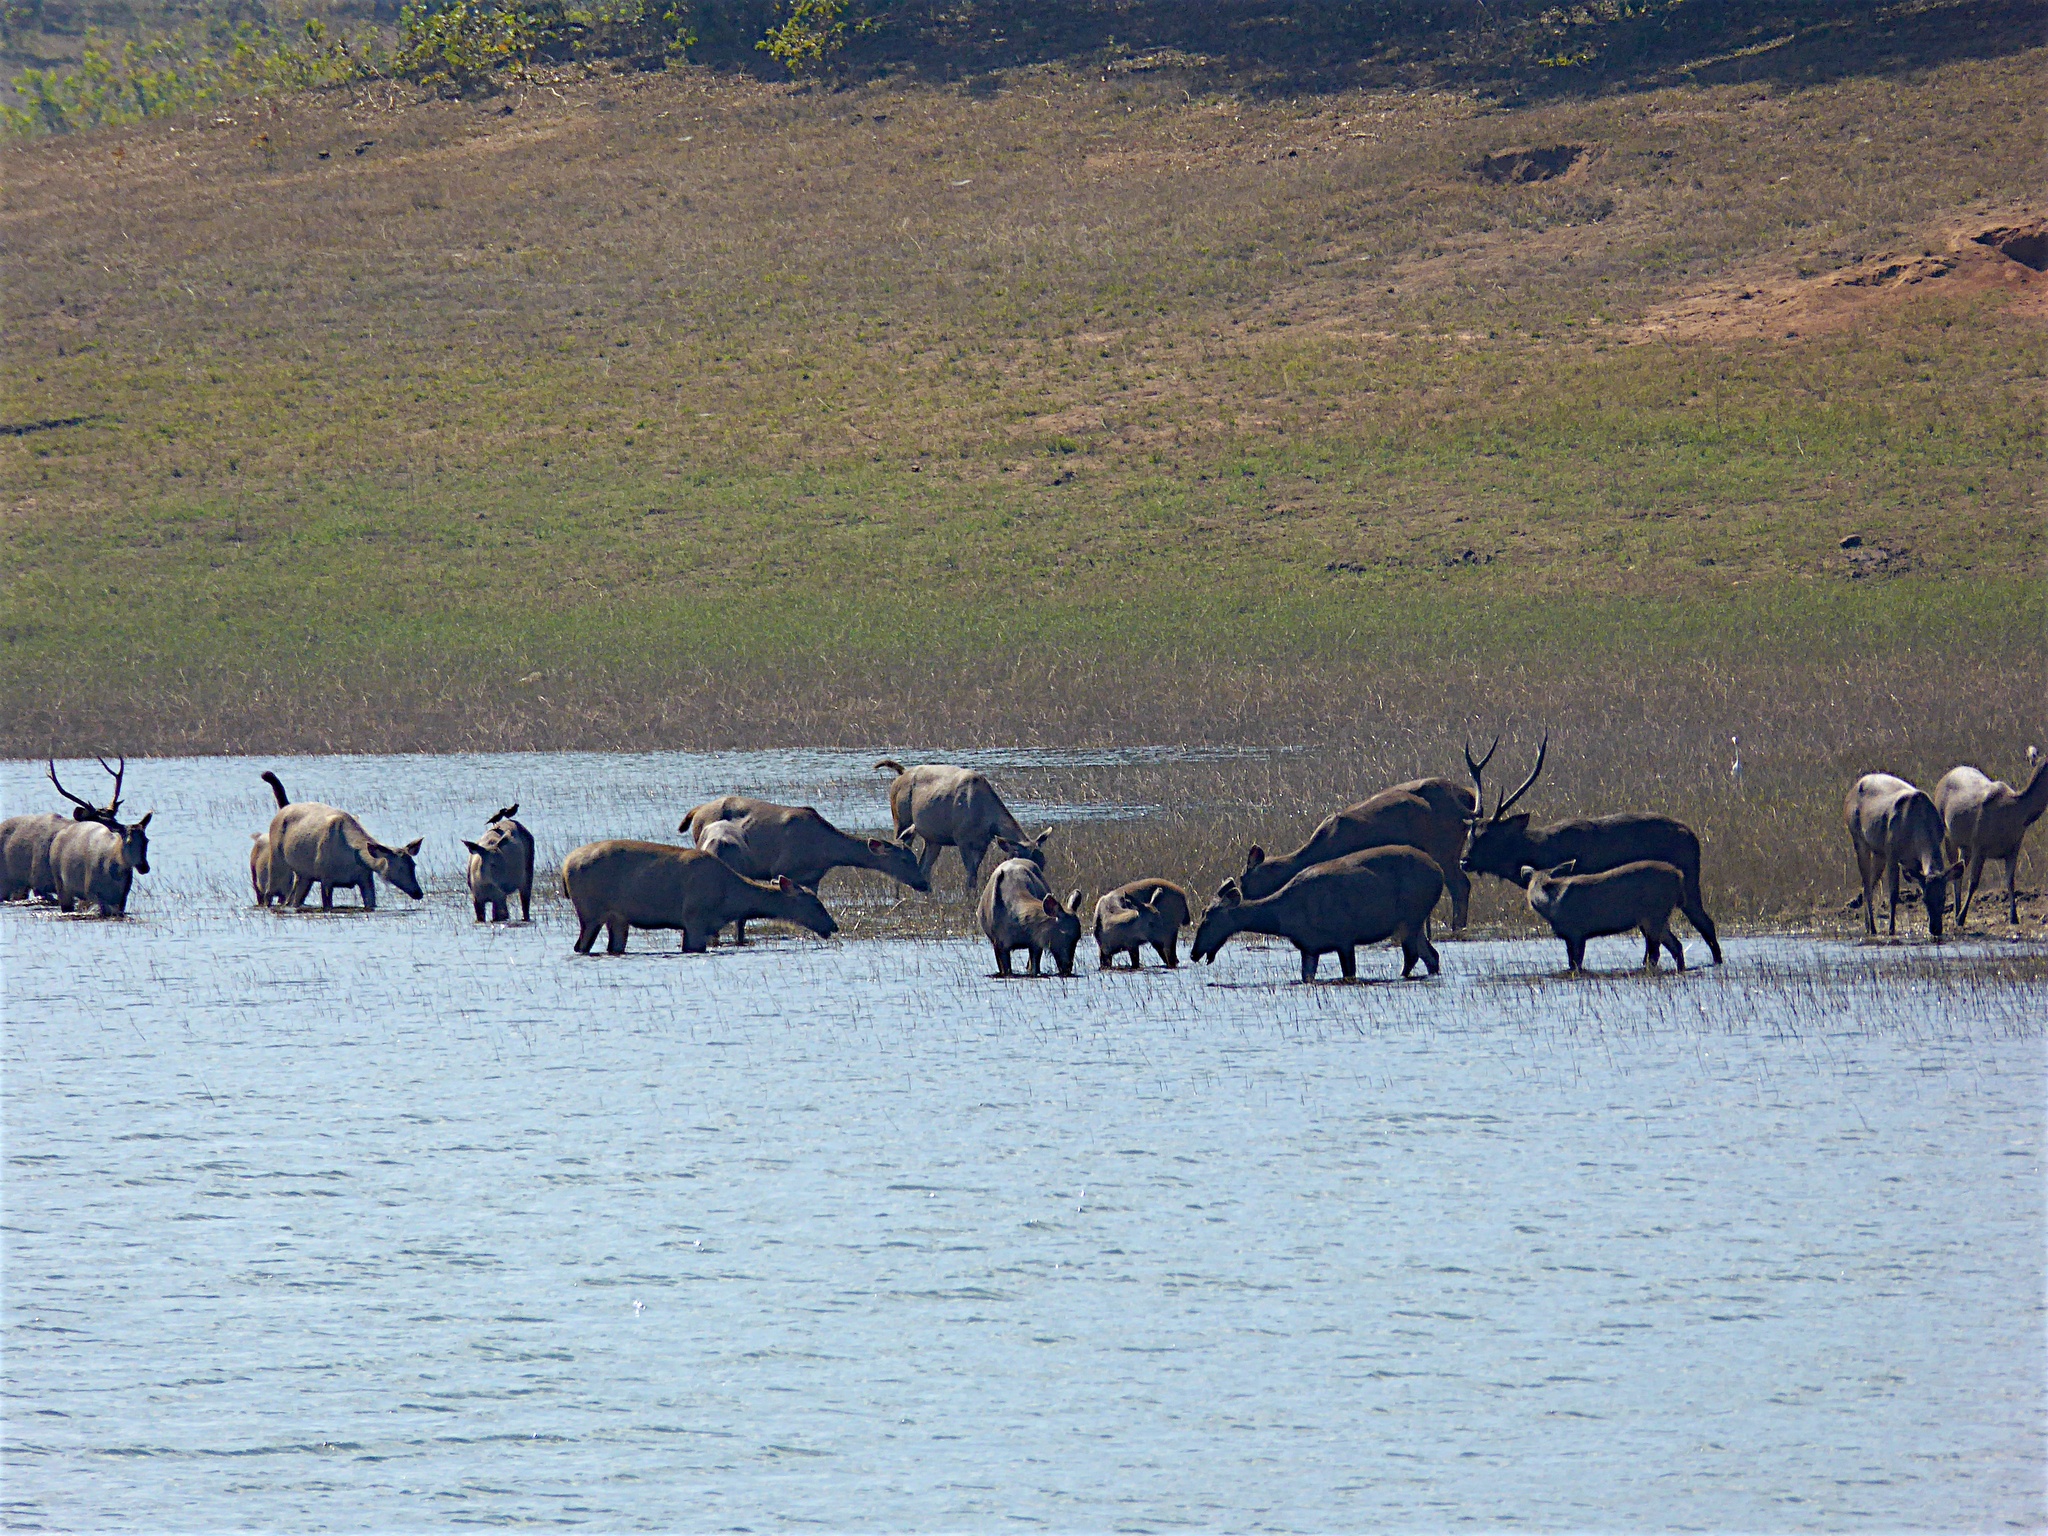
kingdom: Animalia
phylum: Chordata
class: Mammalia
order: Artiodactyla
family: Cervidae
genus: Rusa
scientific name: Rusa unicolor
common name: Sambar
